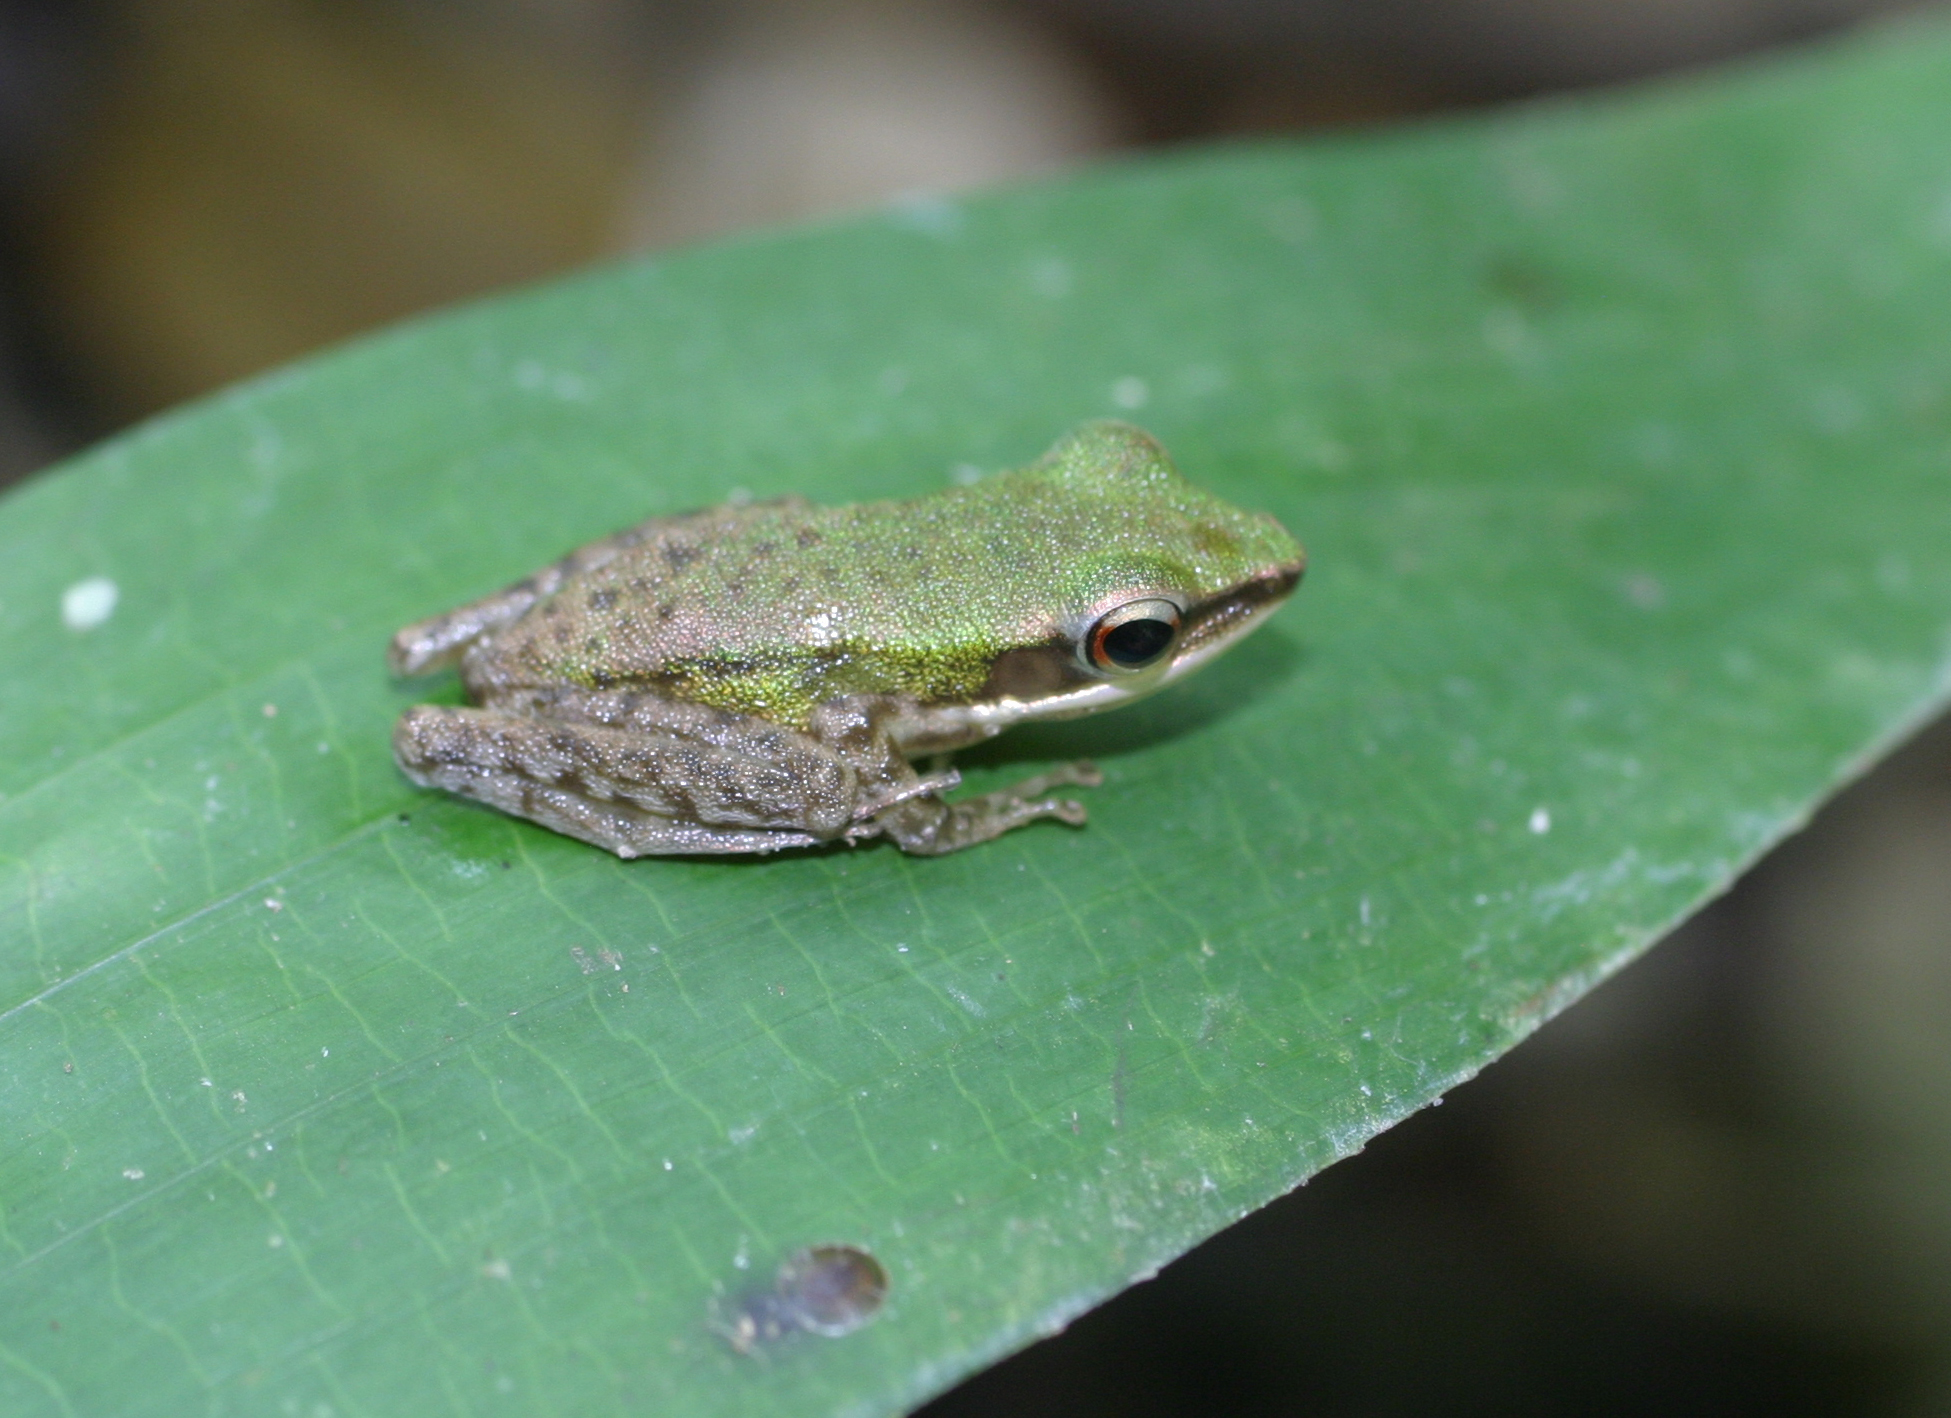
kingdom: Animalia
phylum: Chordata
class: Amphibia
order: Anura
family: Ranidae
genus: Chalcorana
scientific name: Chalcorana eschatia
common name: Tenasserim white-lipped frog
